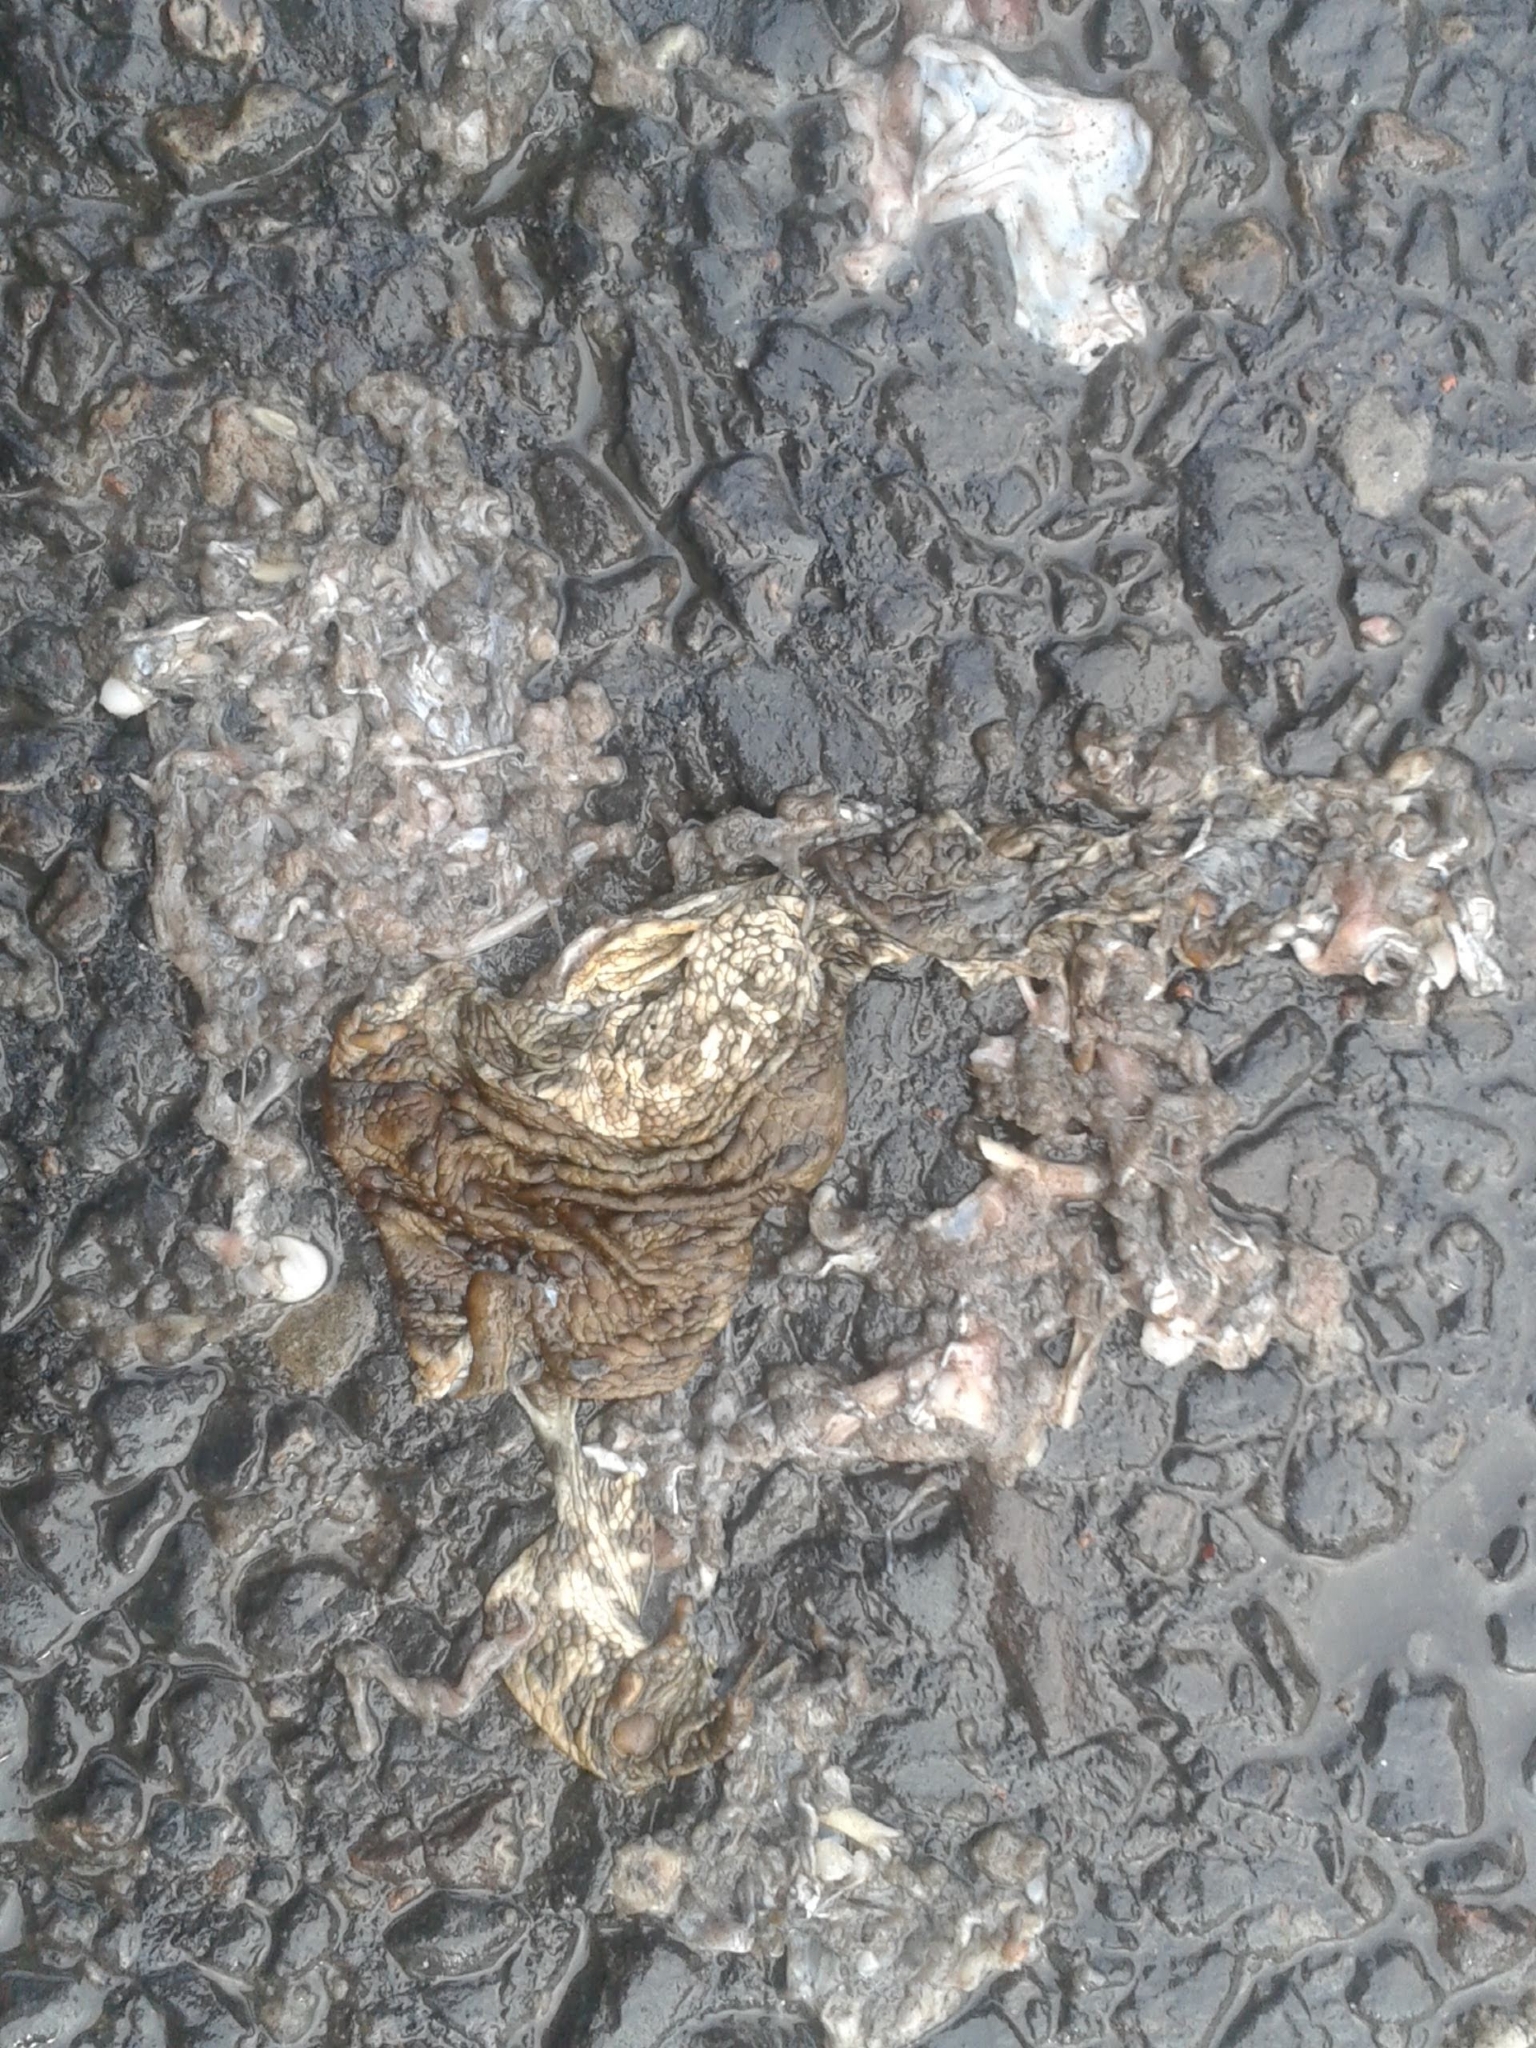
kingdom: Animalia
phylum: Chordata
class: Amphibia
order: Anura
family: Bufonidae
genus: Bufo
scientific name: Bufo bufo
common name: Common toad
